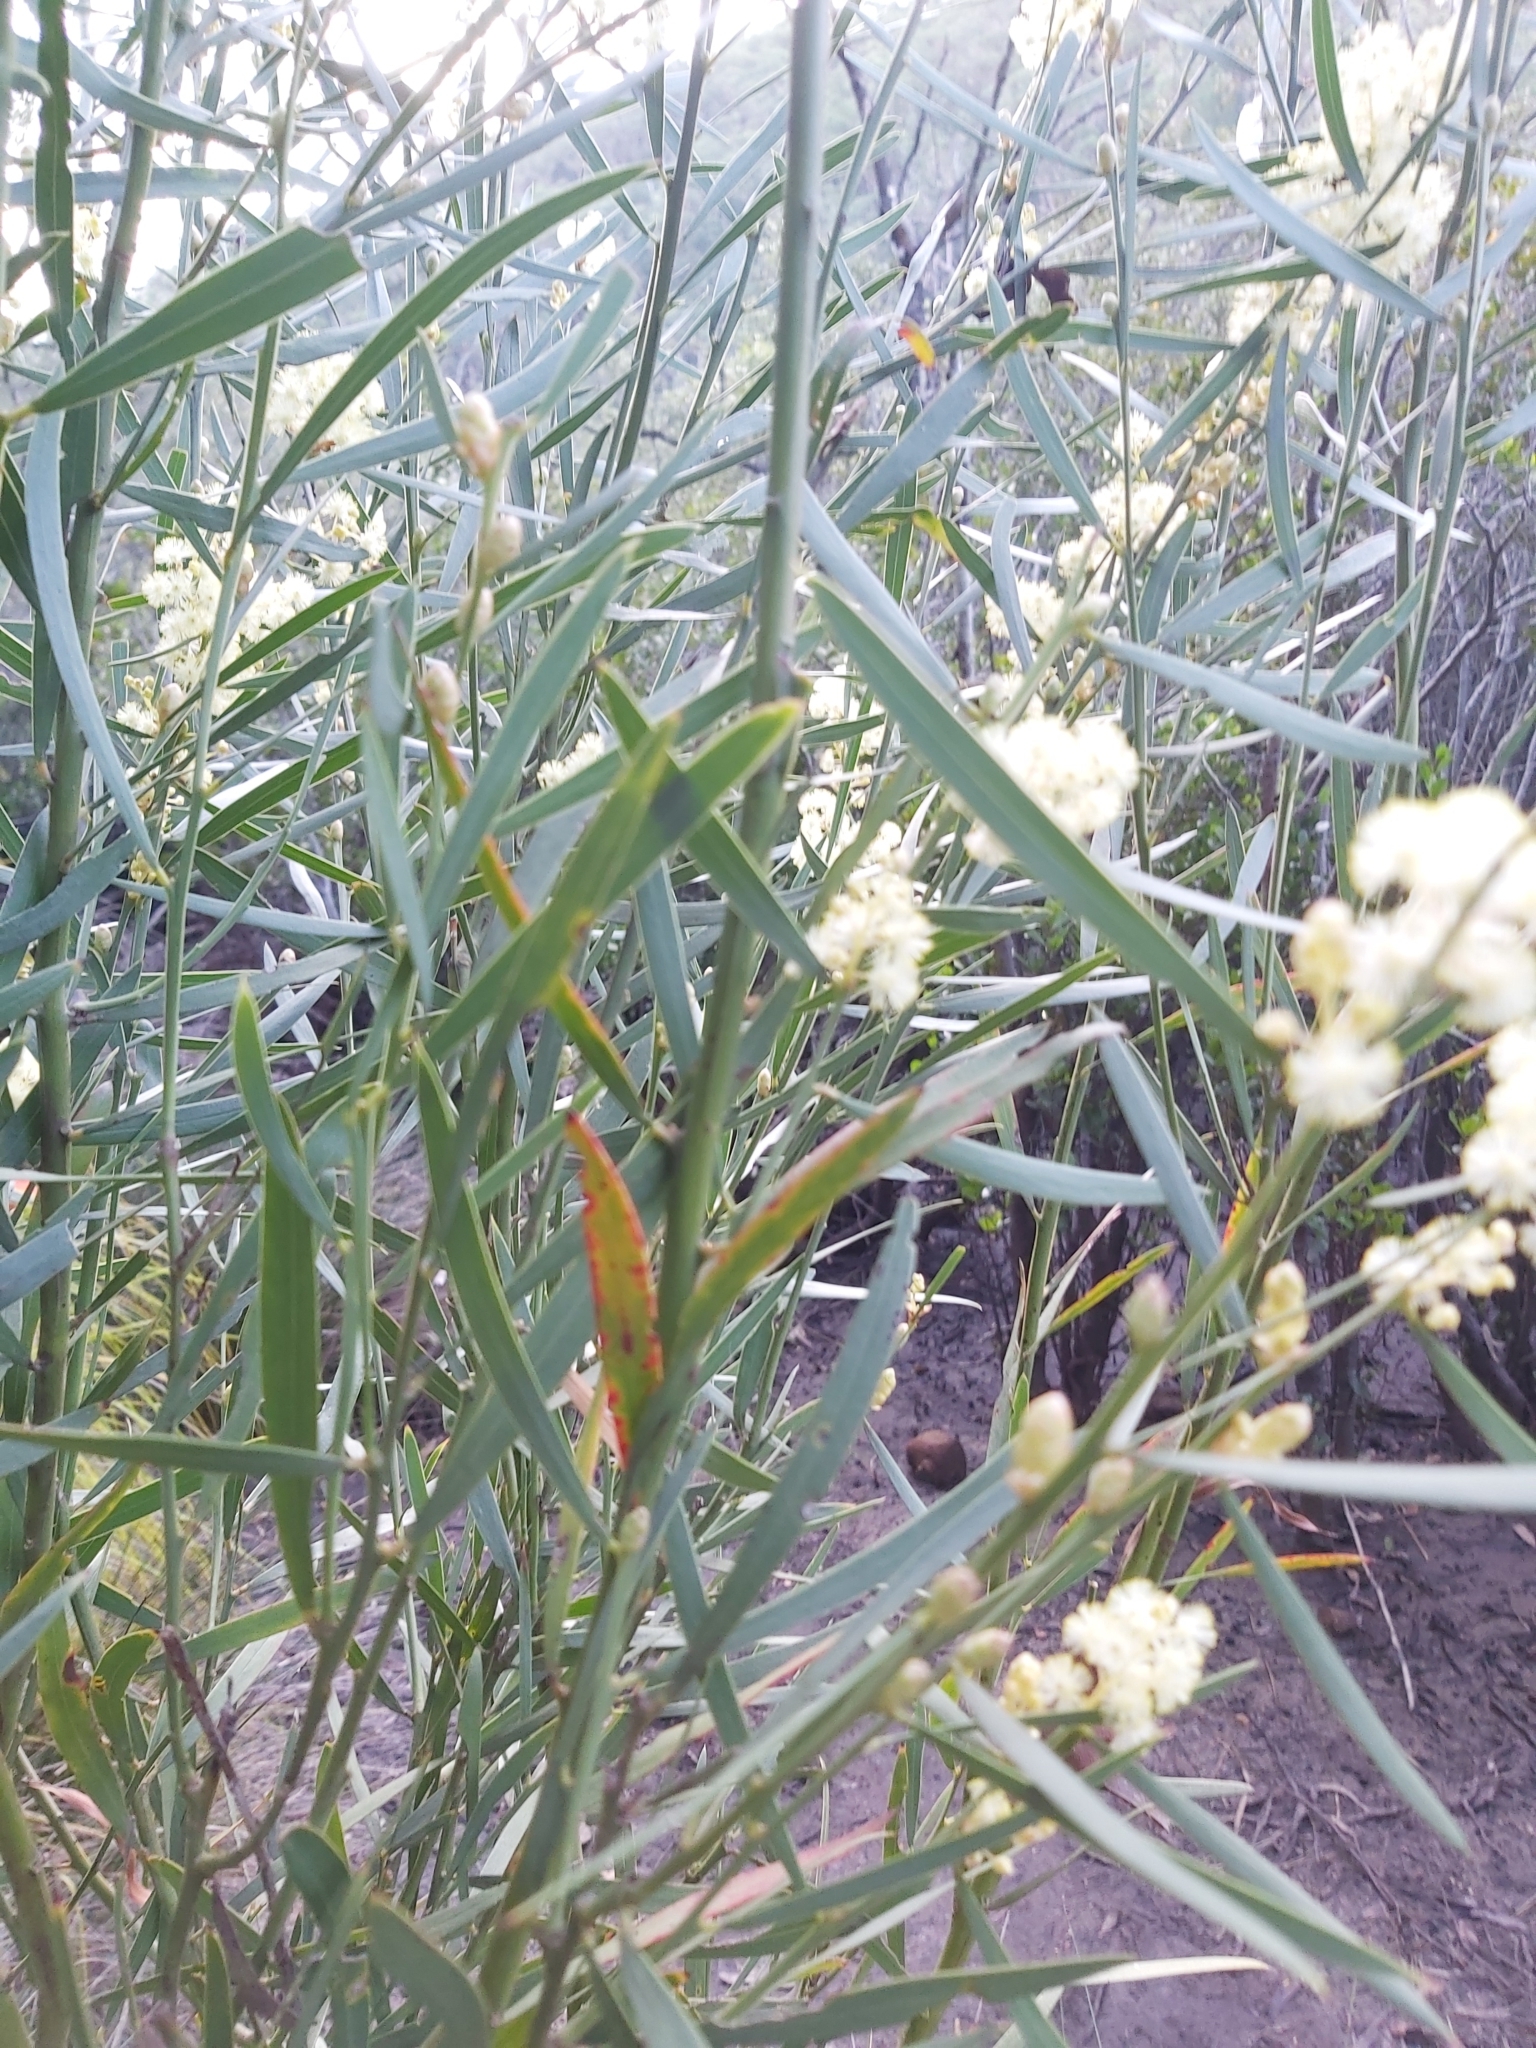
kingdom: Plantae
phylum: Tracheophyta
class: Magnoliopsida
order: Fabales
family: Fabaceae
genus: Acacia
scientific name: Acacia suaveolens
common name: Sweet acacia
